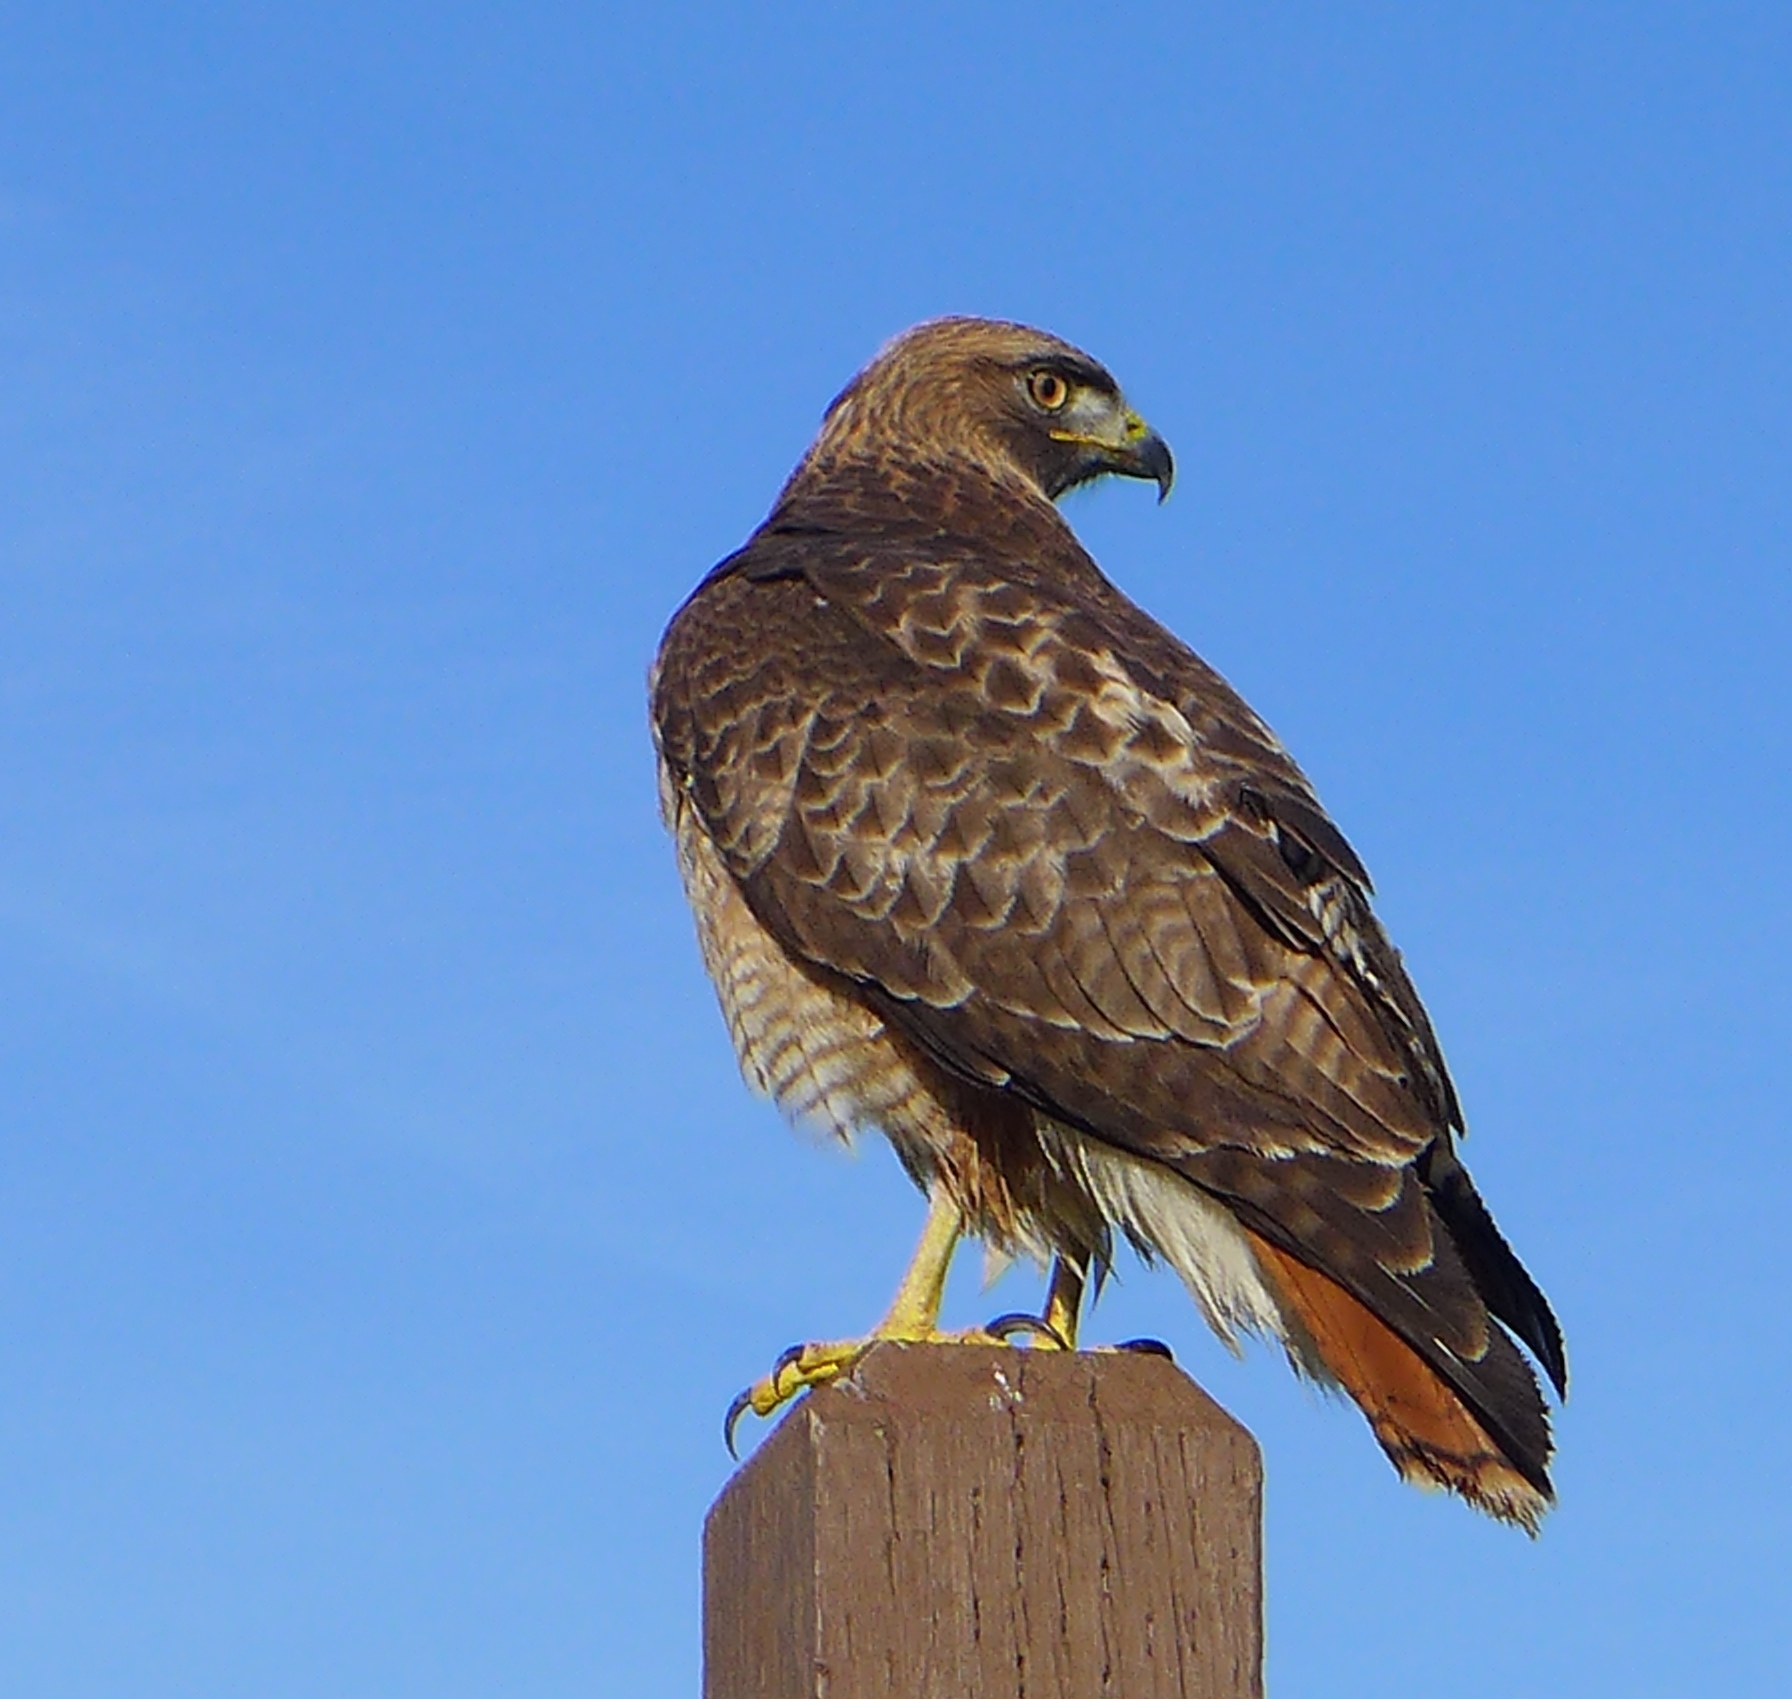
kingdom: Animalia
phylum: Chordata
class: Aves
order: Accipitriformes
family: Accipitridae
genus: Buteo
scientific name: Buteo jamaicensis
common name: Red-tailed hawk
